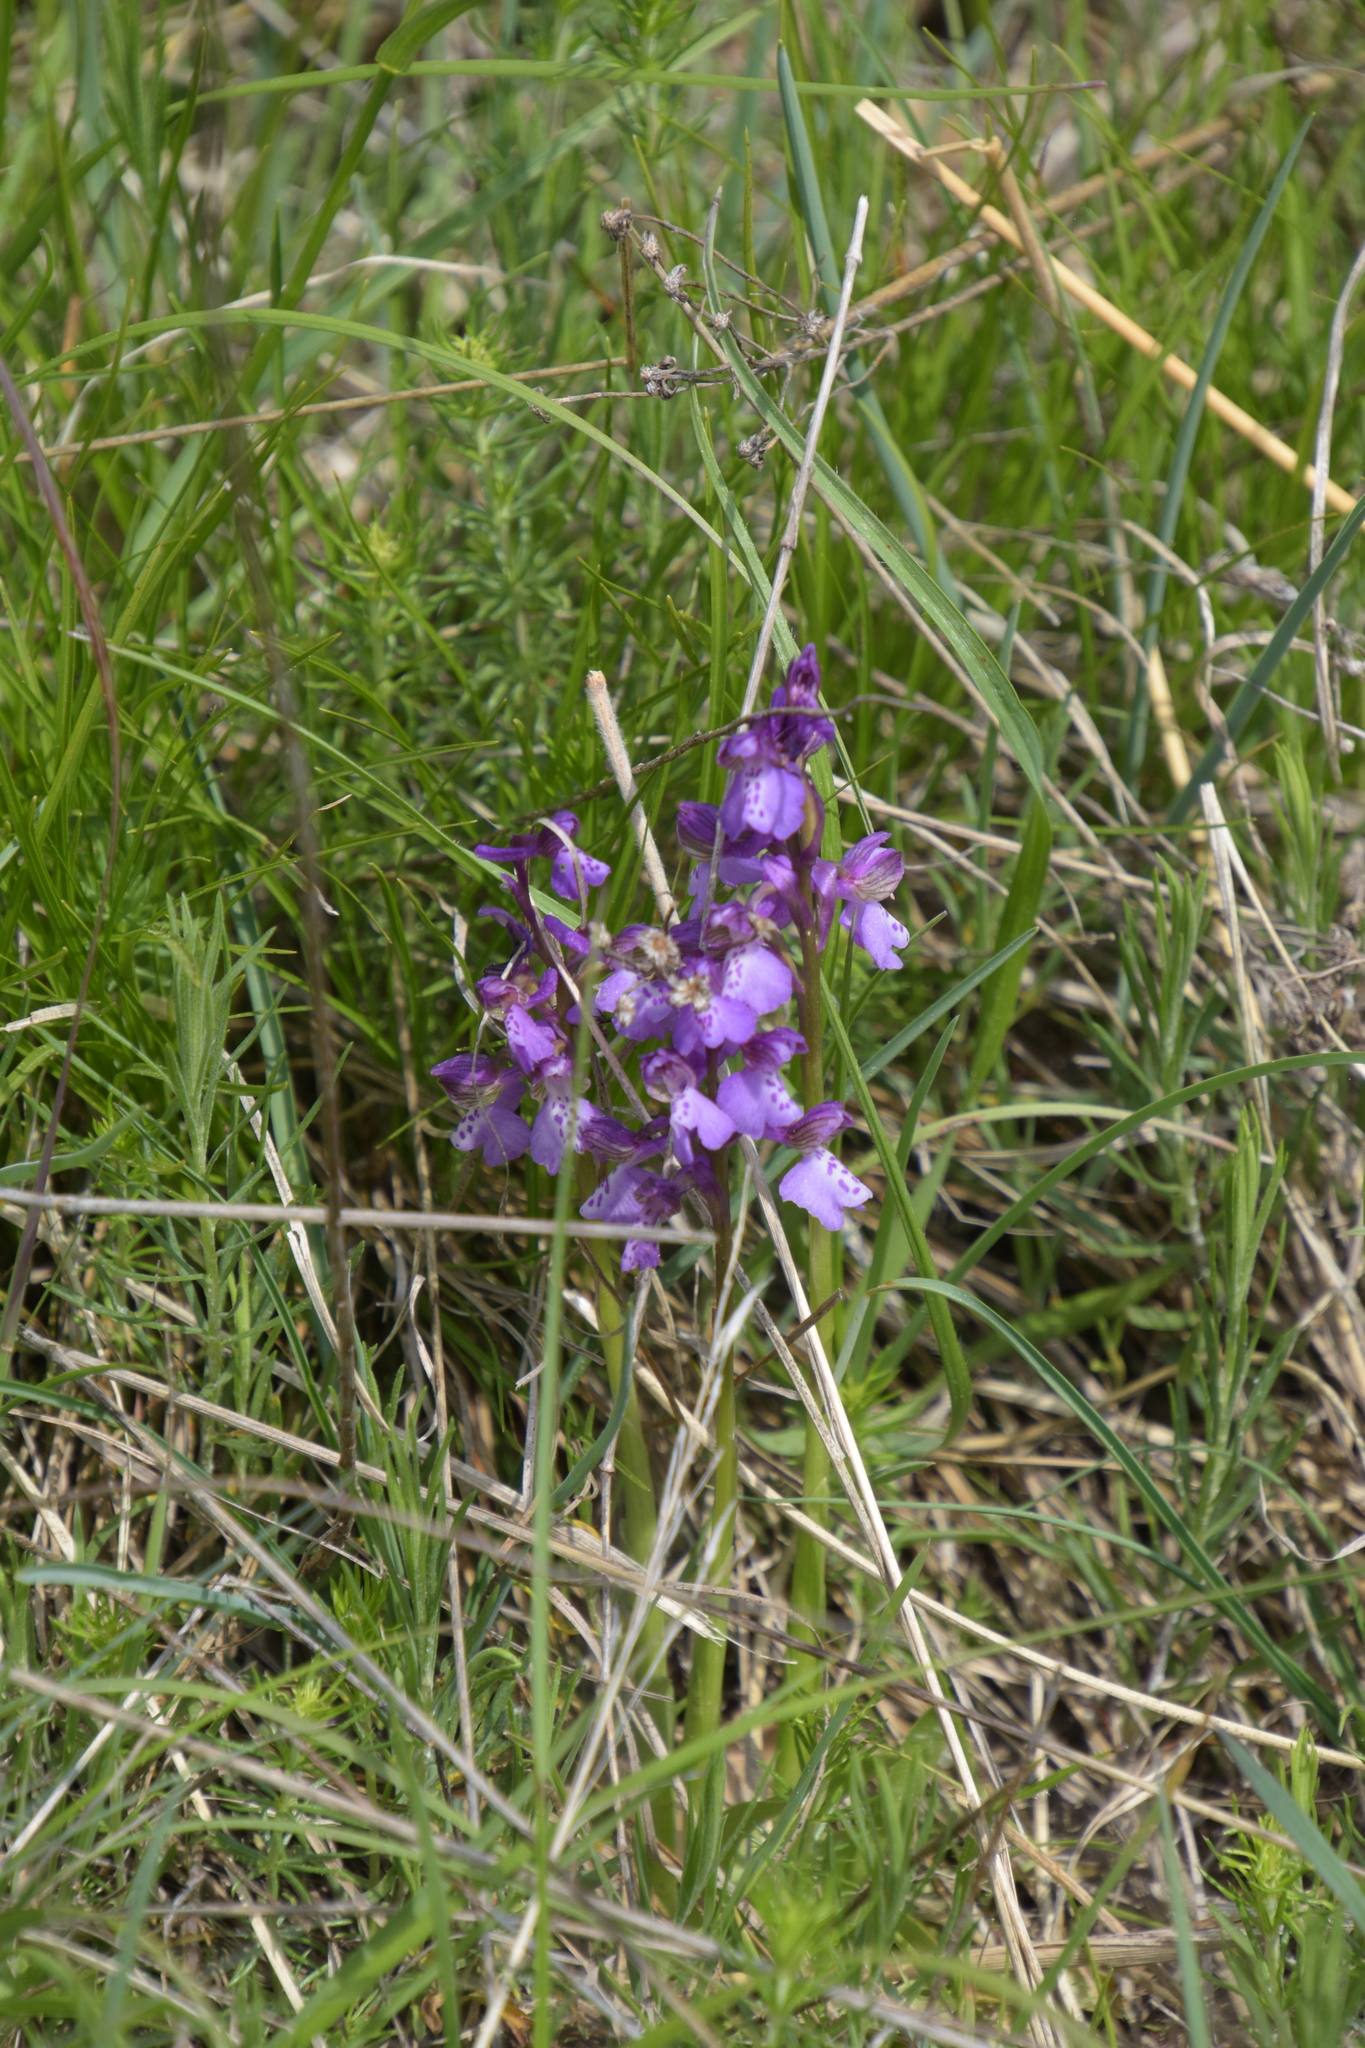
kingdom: Plantae
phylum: Tracheophyta
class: Liliopsida
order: Asparagales
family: Orchidaceae
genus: Anacamptis
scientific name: Anacamptis morio
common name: Green-winged orchid
